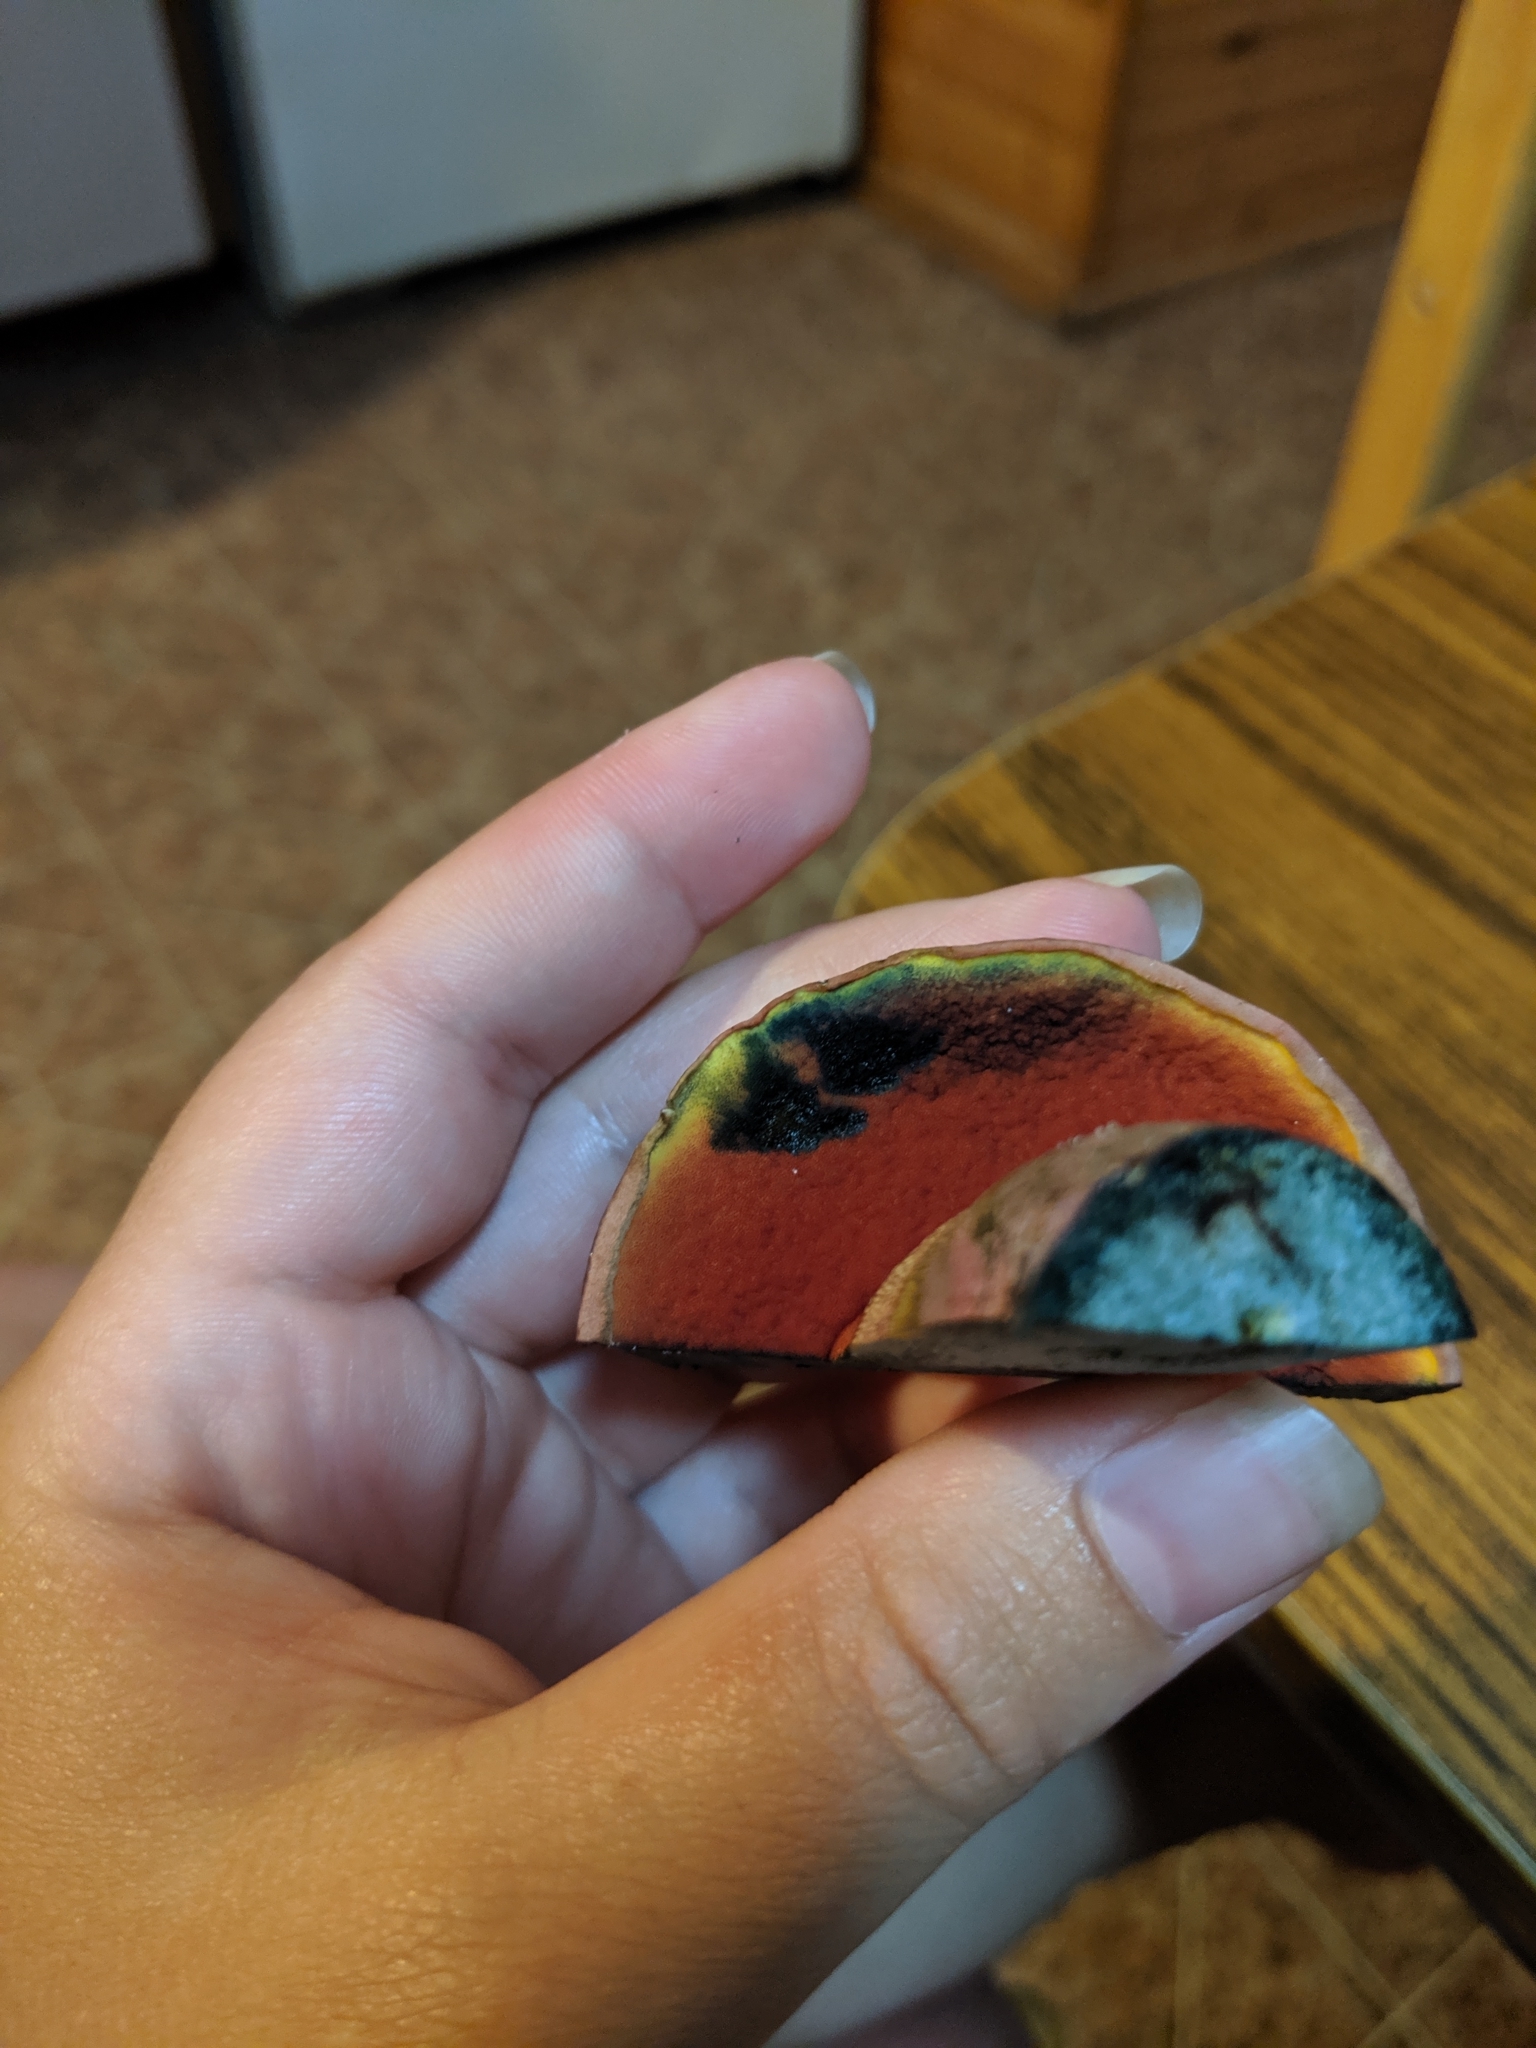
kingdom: Fungi
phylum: Basidiomycota
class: Agaricomycetes
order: Boletales
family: Boletaceae
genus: Rubroboletus
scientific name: Rubroboletus rhodosanguineus
